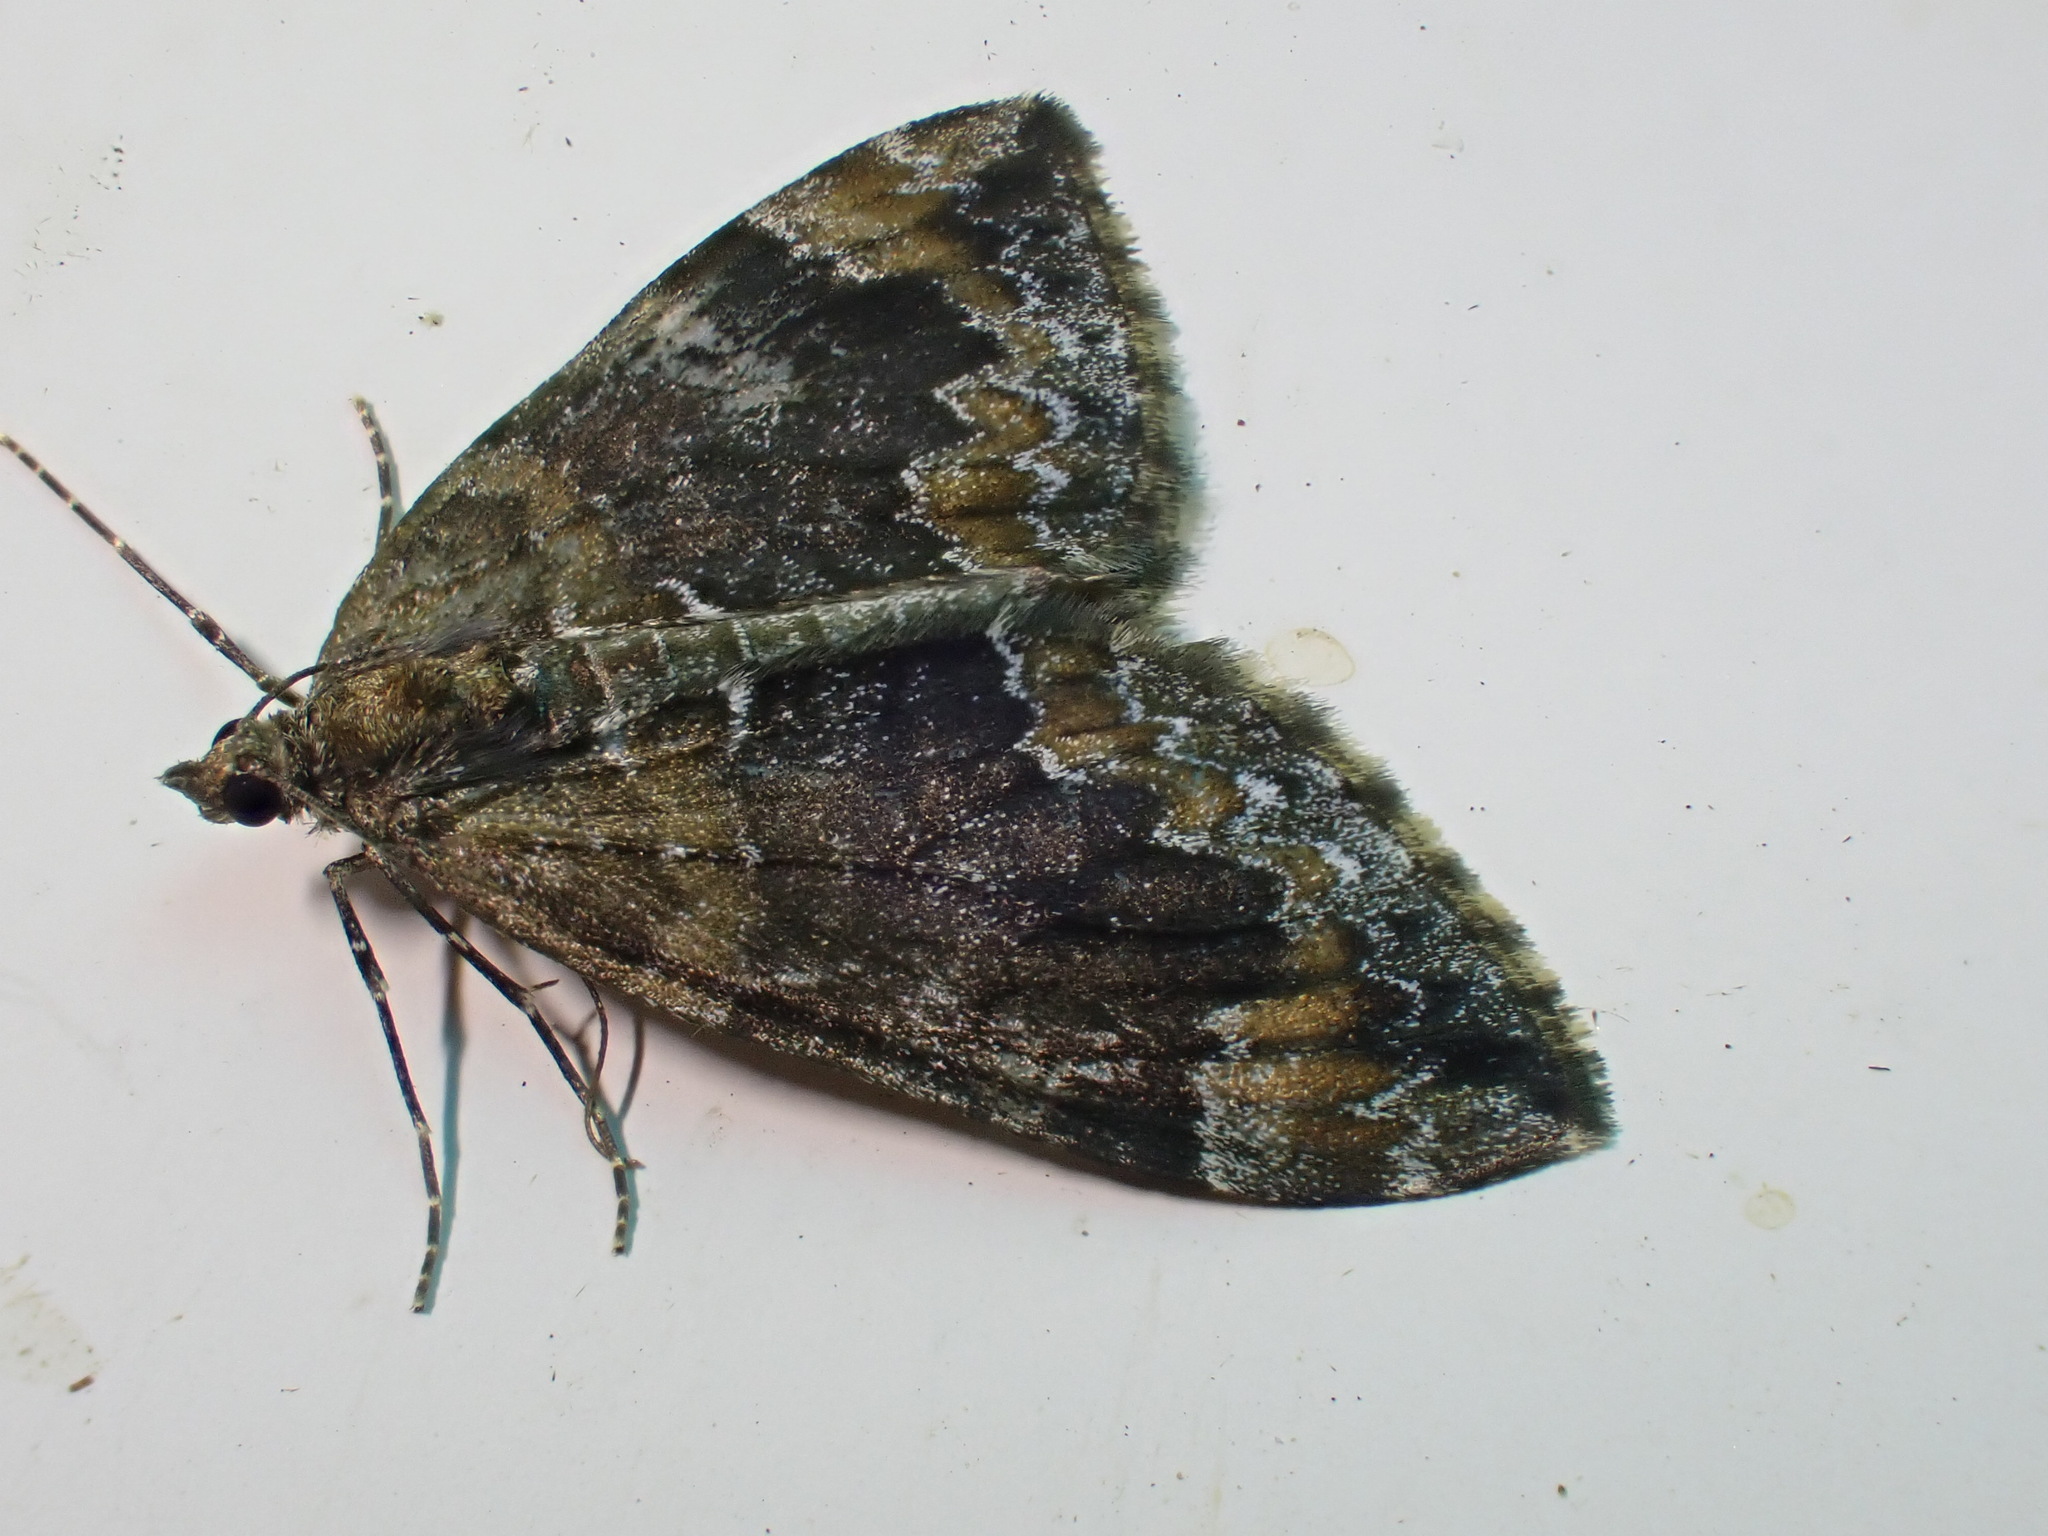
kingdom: Animalia
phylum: Arthropoda
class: Insecta
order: Lepidoptera
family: Geometridae
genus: Dysstroma
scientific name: Dysstroma truncata
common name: Common marbled carpet
